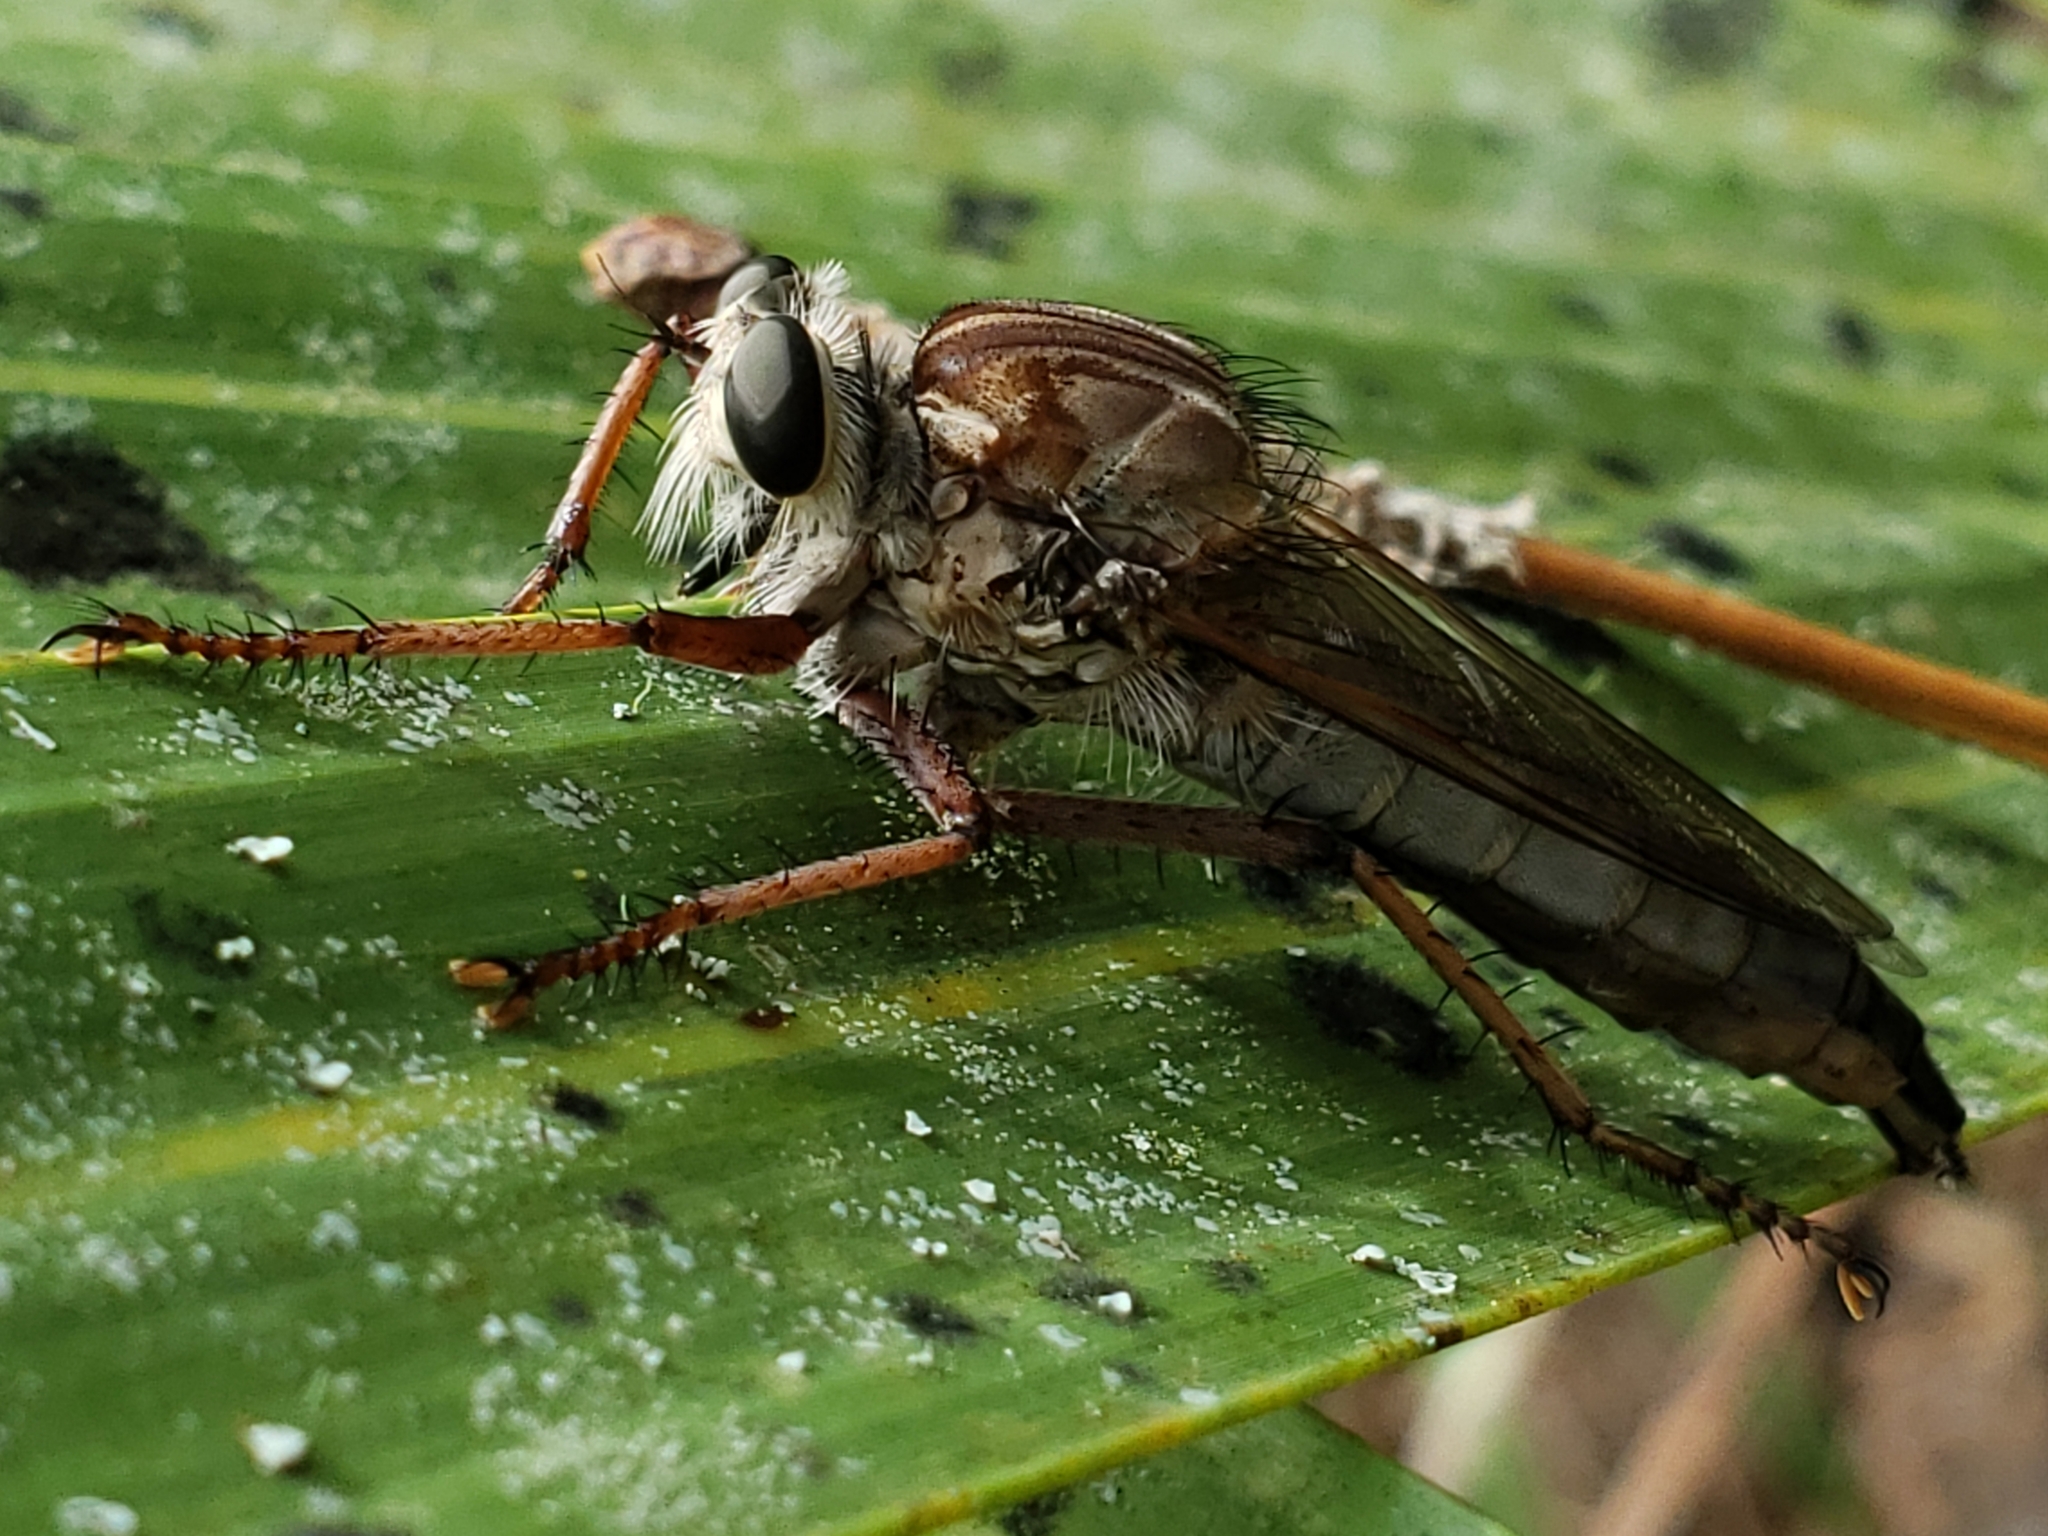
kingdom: Animalia
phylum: Arthropoda
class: Insecta
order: Diptera
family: Asilidae
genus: Proctacanthus
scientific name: Proctacanthus longus
